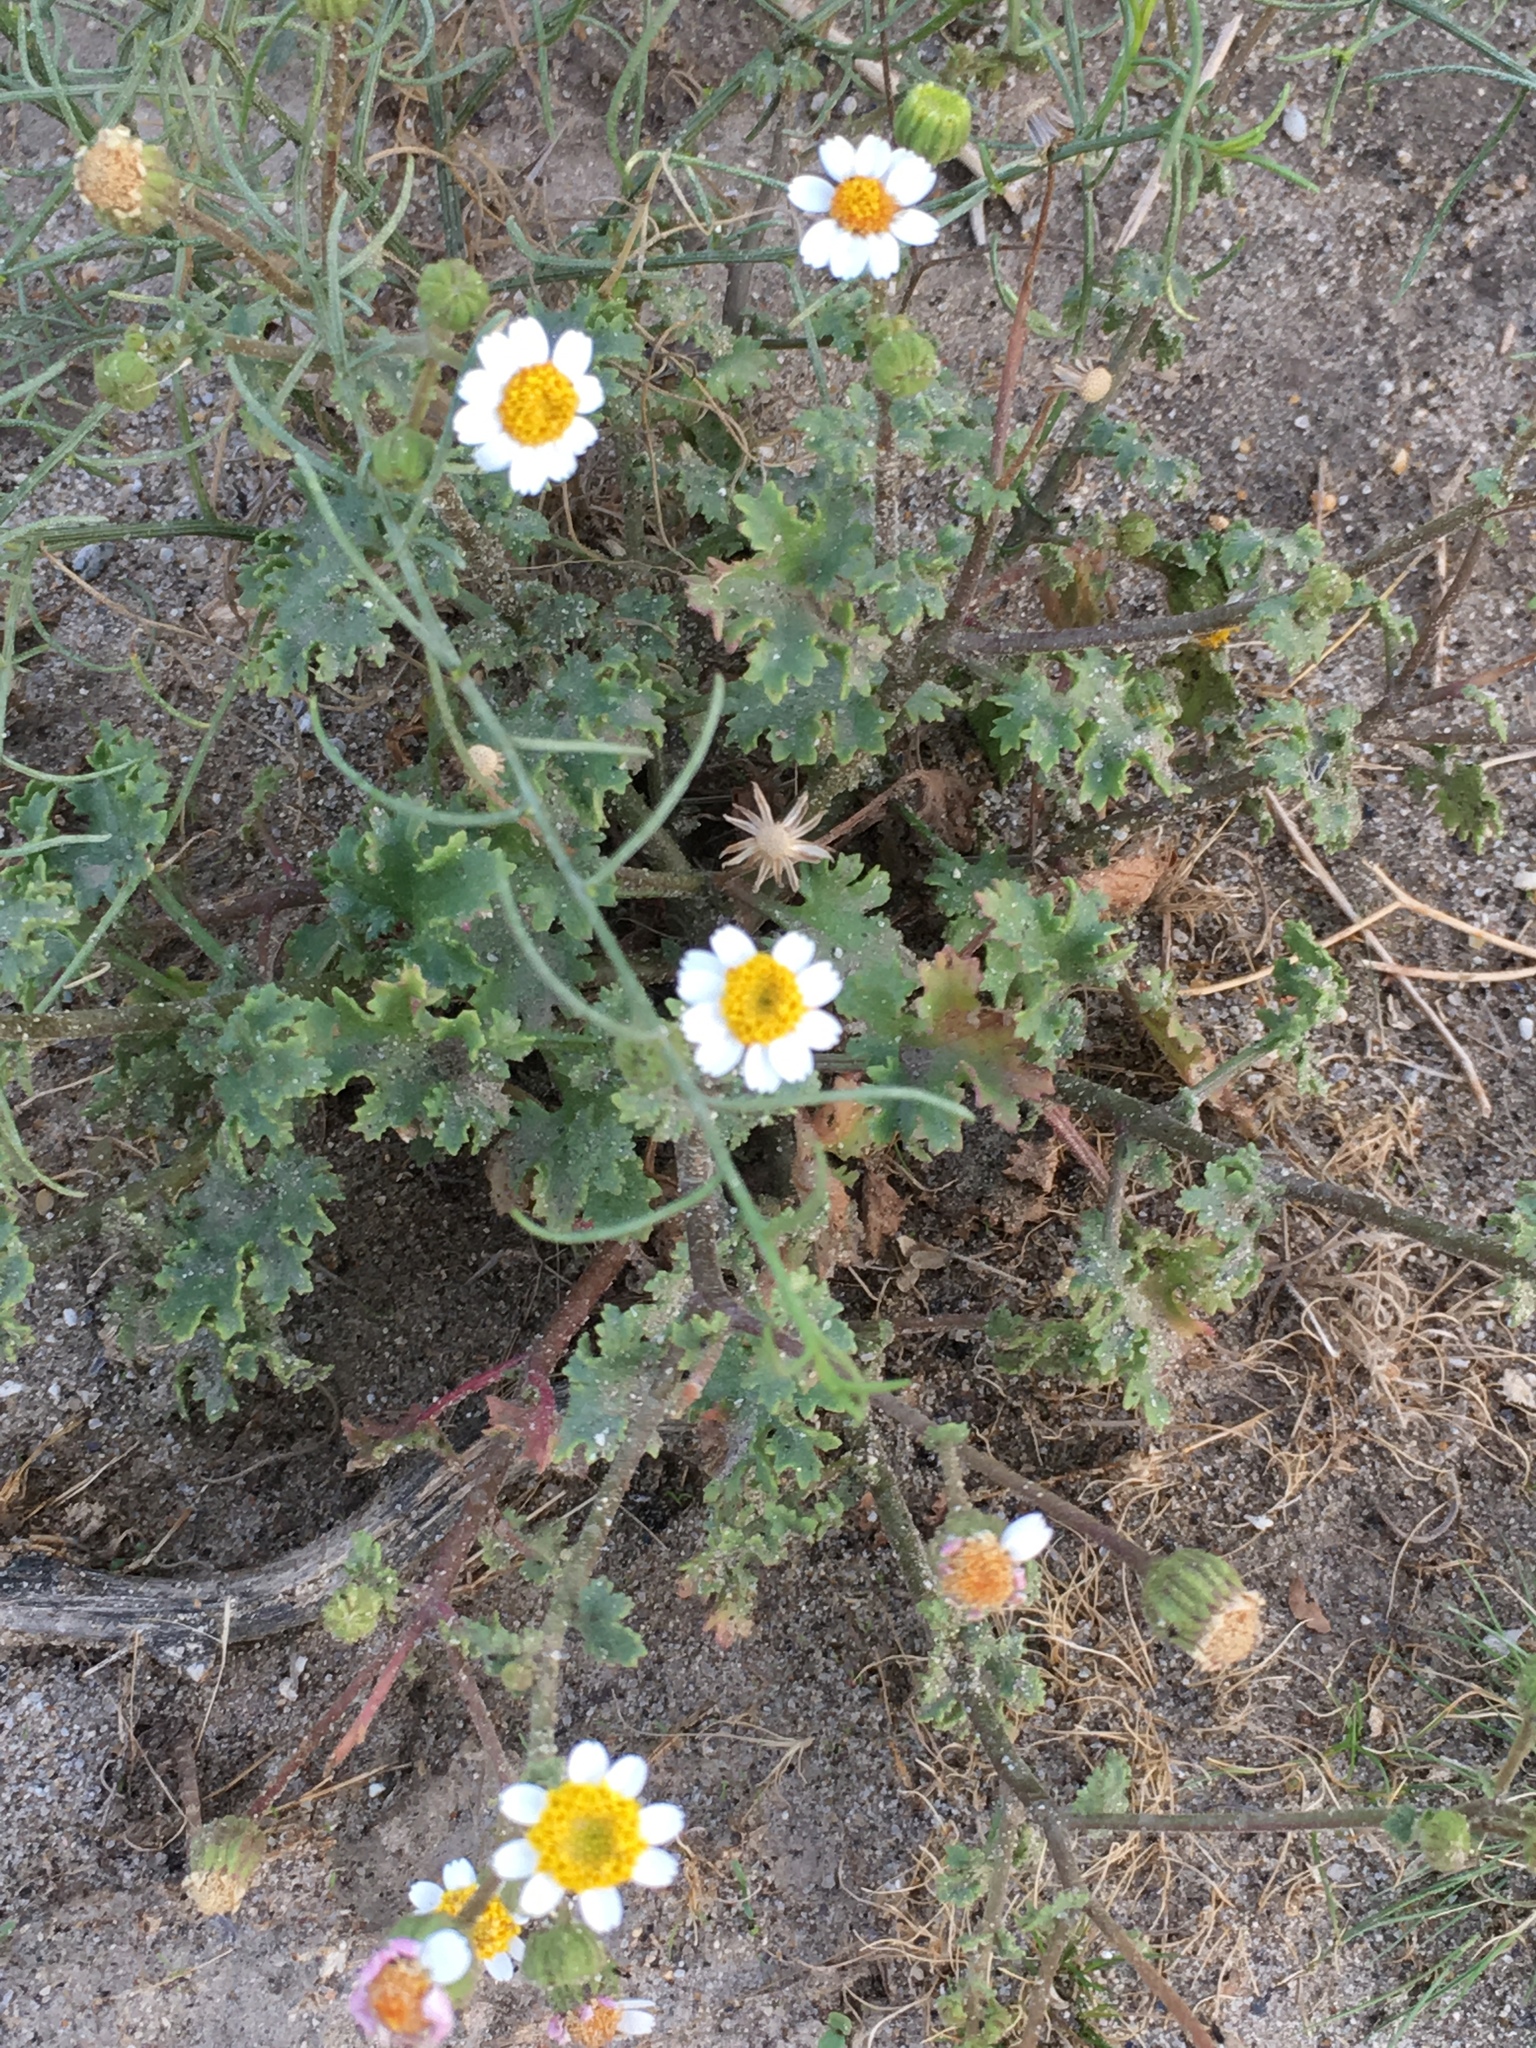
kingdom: Plantae
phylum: Tracheophyta
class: Magnoliopsida
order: Asterales
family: Asteraceae
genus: Laphamia
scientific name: Laphamia emoryi
